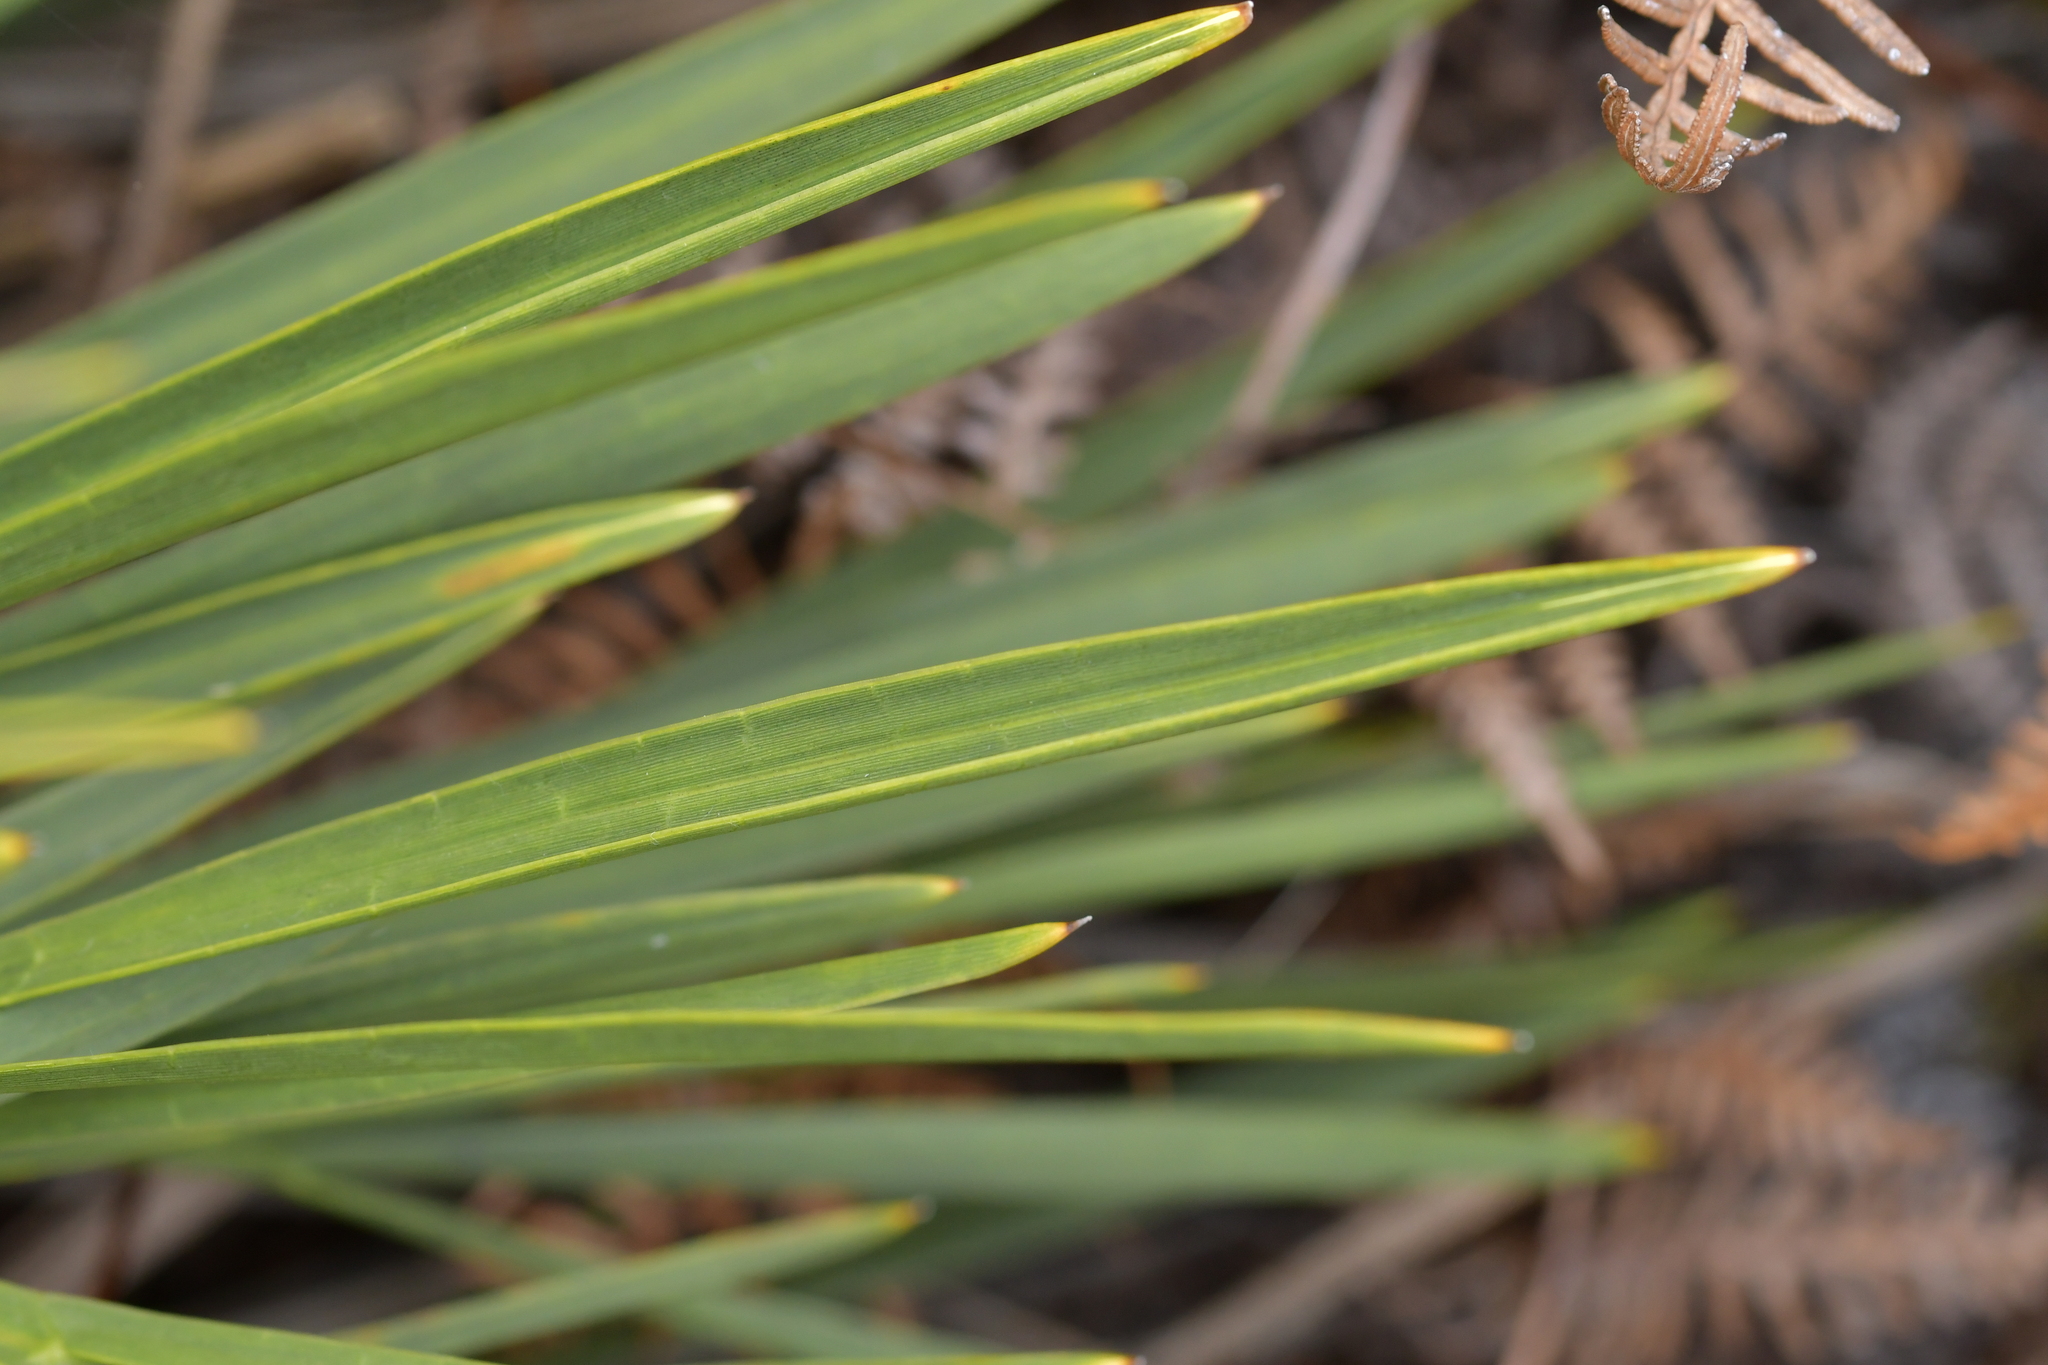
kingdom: Plantae
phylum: Tracheophyta
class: Magnoliopsida
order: Apiales
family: Apiaceae
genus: Aciphylla
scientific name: Aciphylla traversii
